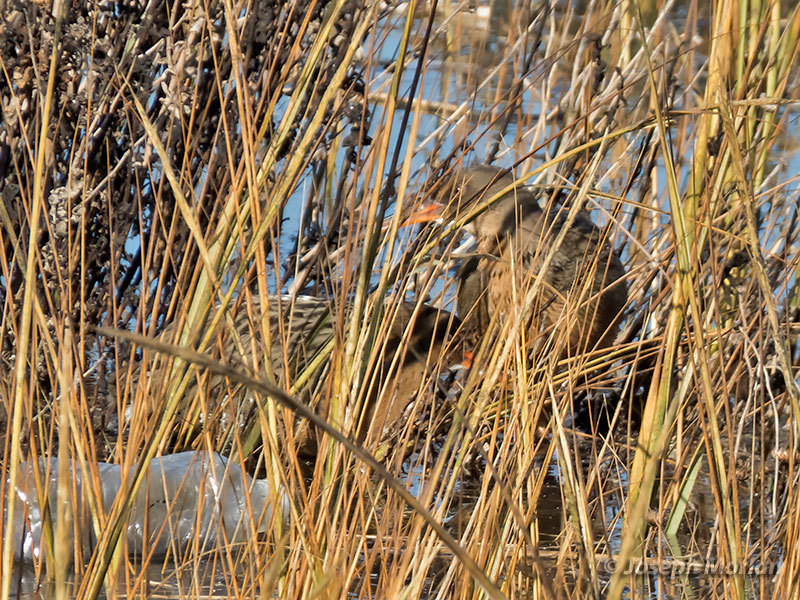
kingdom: Animalia
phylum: Chordata
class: Aves
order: Gruiformes
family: Rallidae
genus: Rallus
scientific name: Rallus obsoletus
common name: Ridgway's rail
